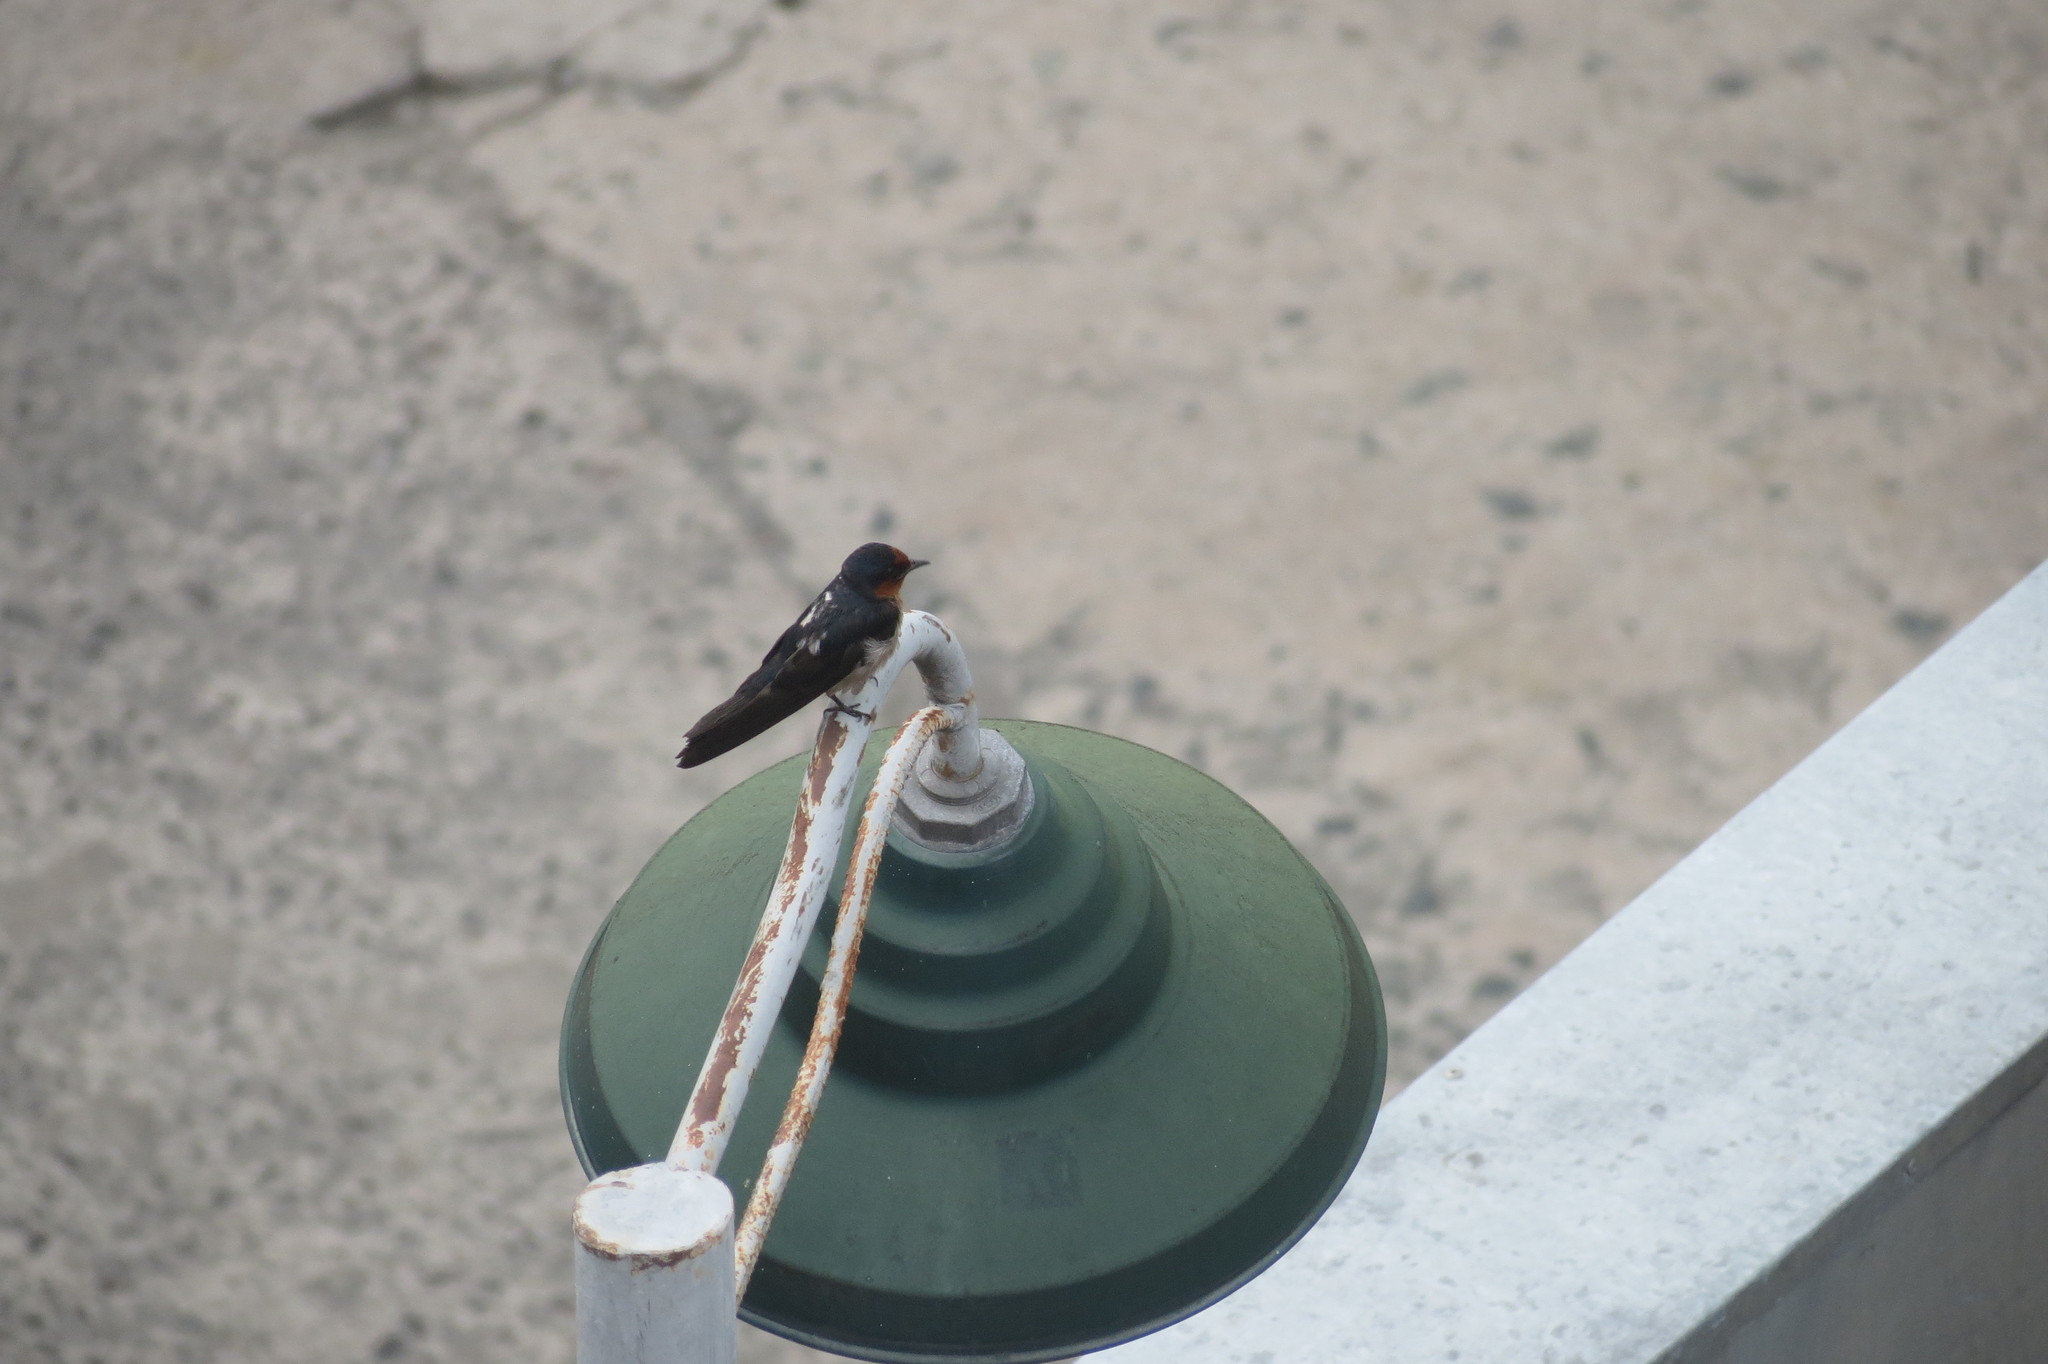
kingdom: Animalia
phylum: Chordata
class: Aves
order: Passeriformes
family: Hirundinidae
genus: Hirundo
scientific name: Hirundo rustica
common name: Barn swallow
